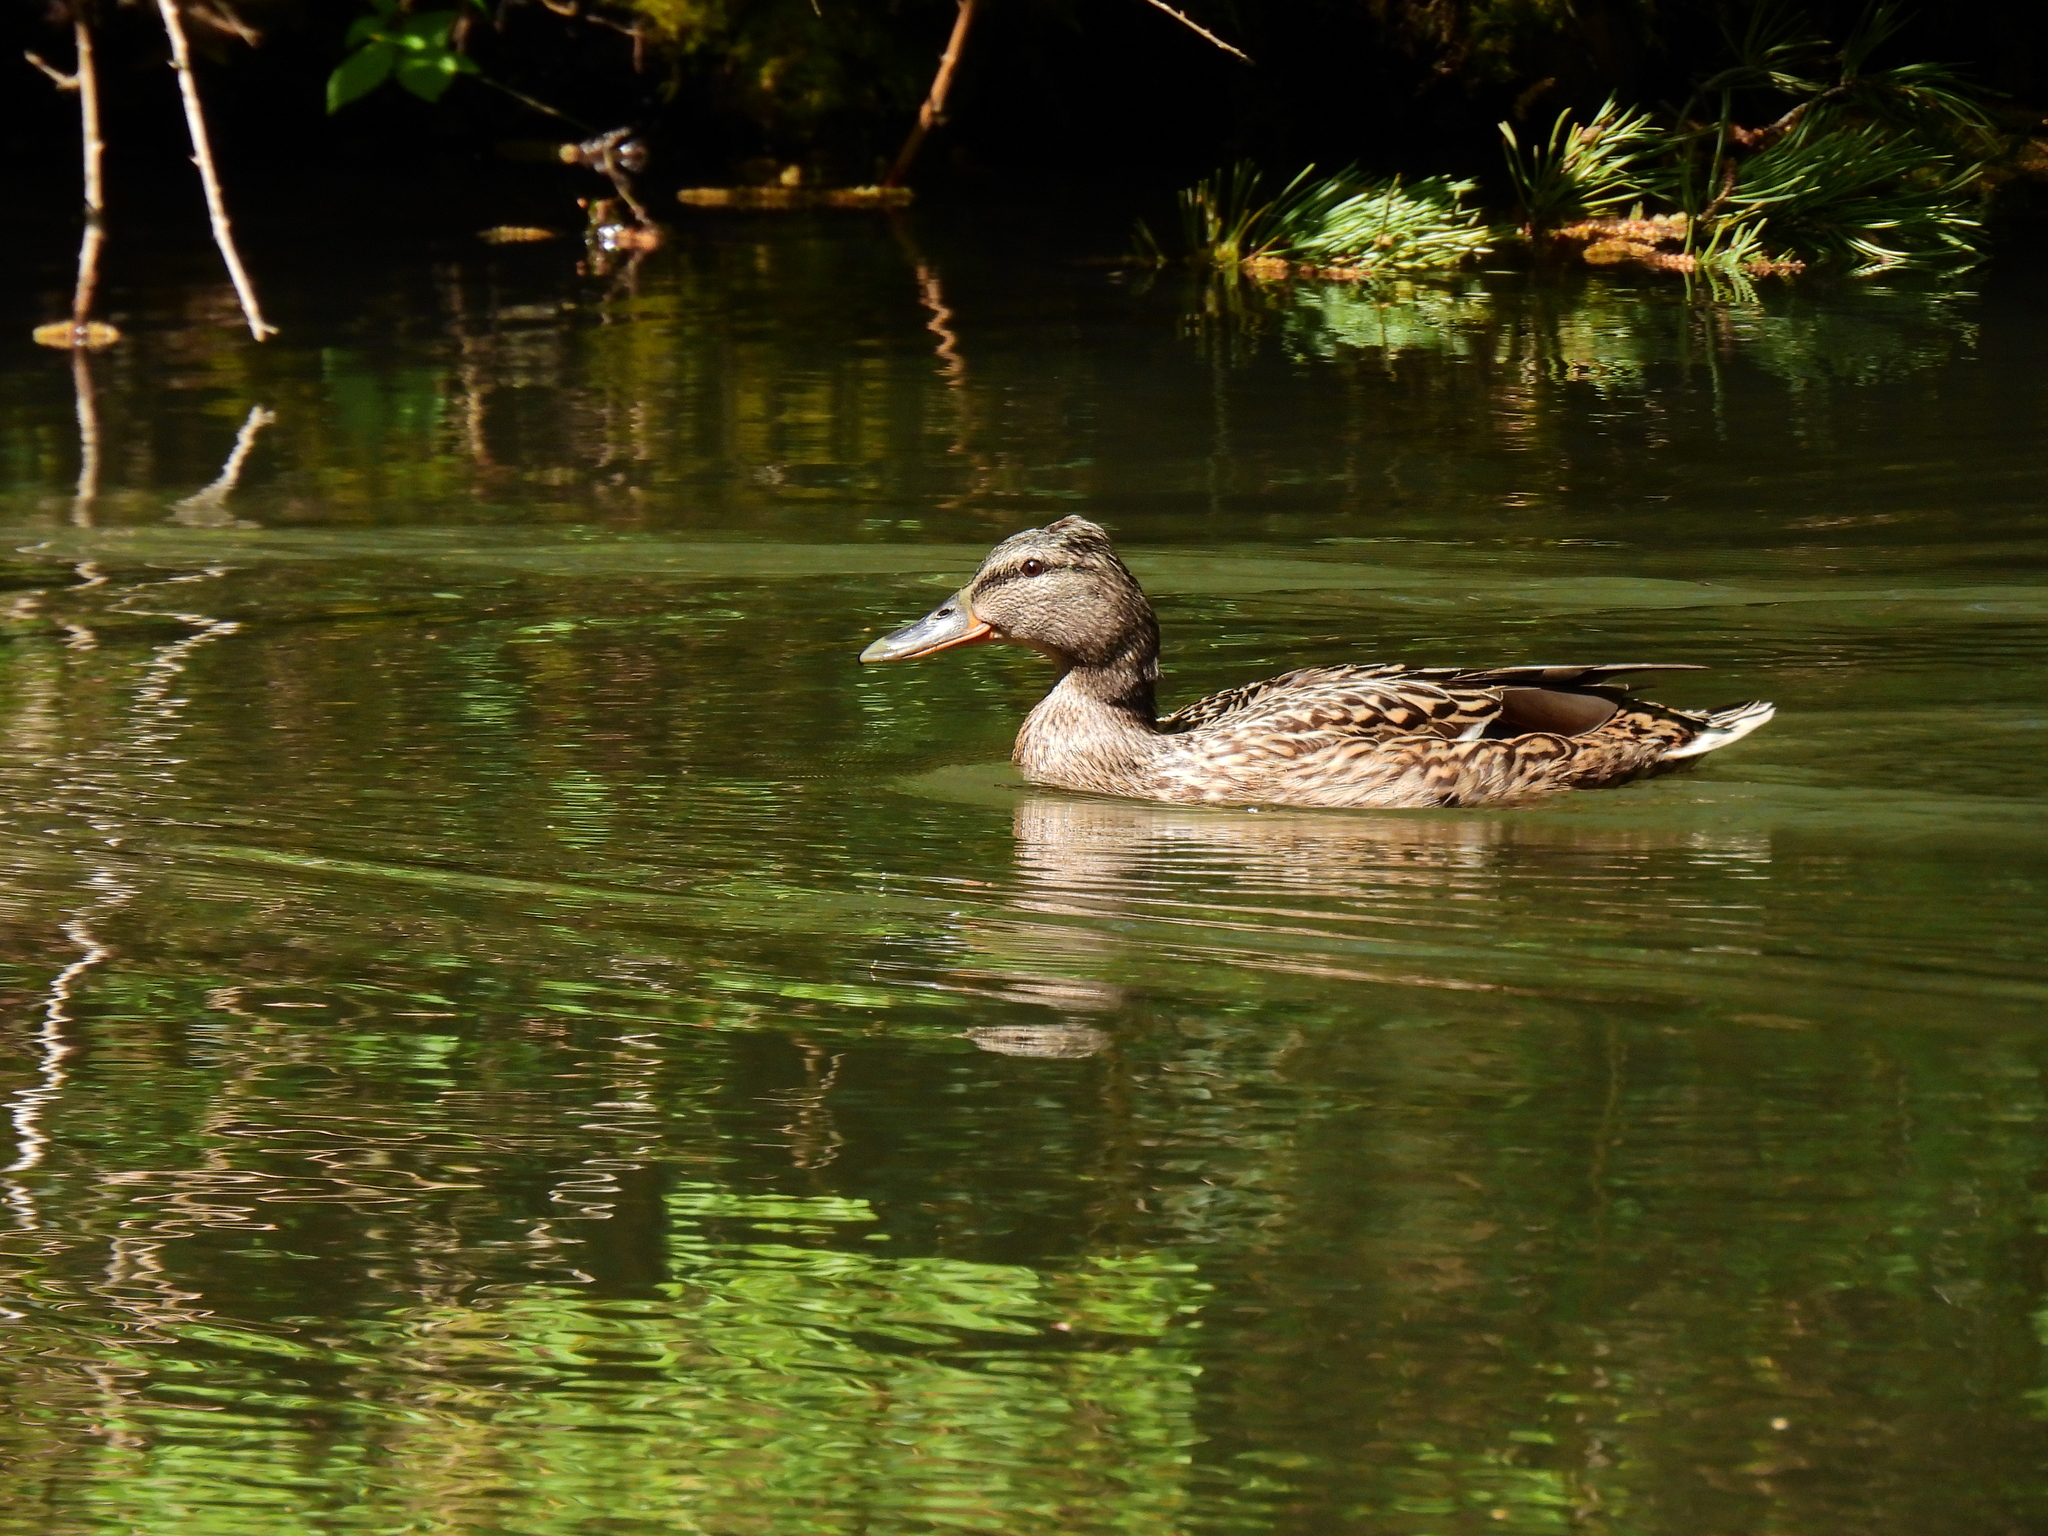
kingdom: Animalia
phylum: Chordata
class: Aves
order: Anseriformes
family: Anatidae
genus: Anas
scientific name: Anas platyrhynchos
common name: Mallard
